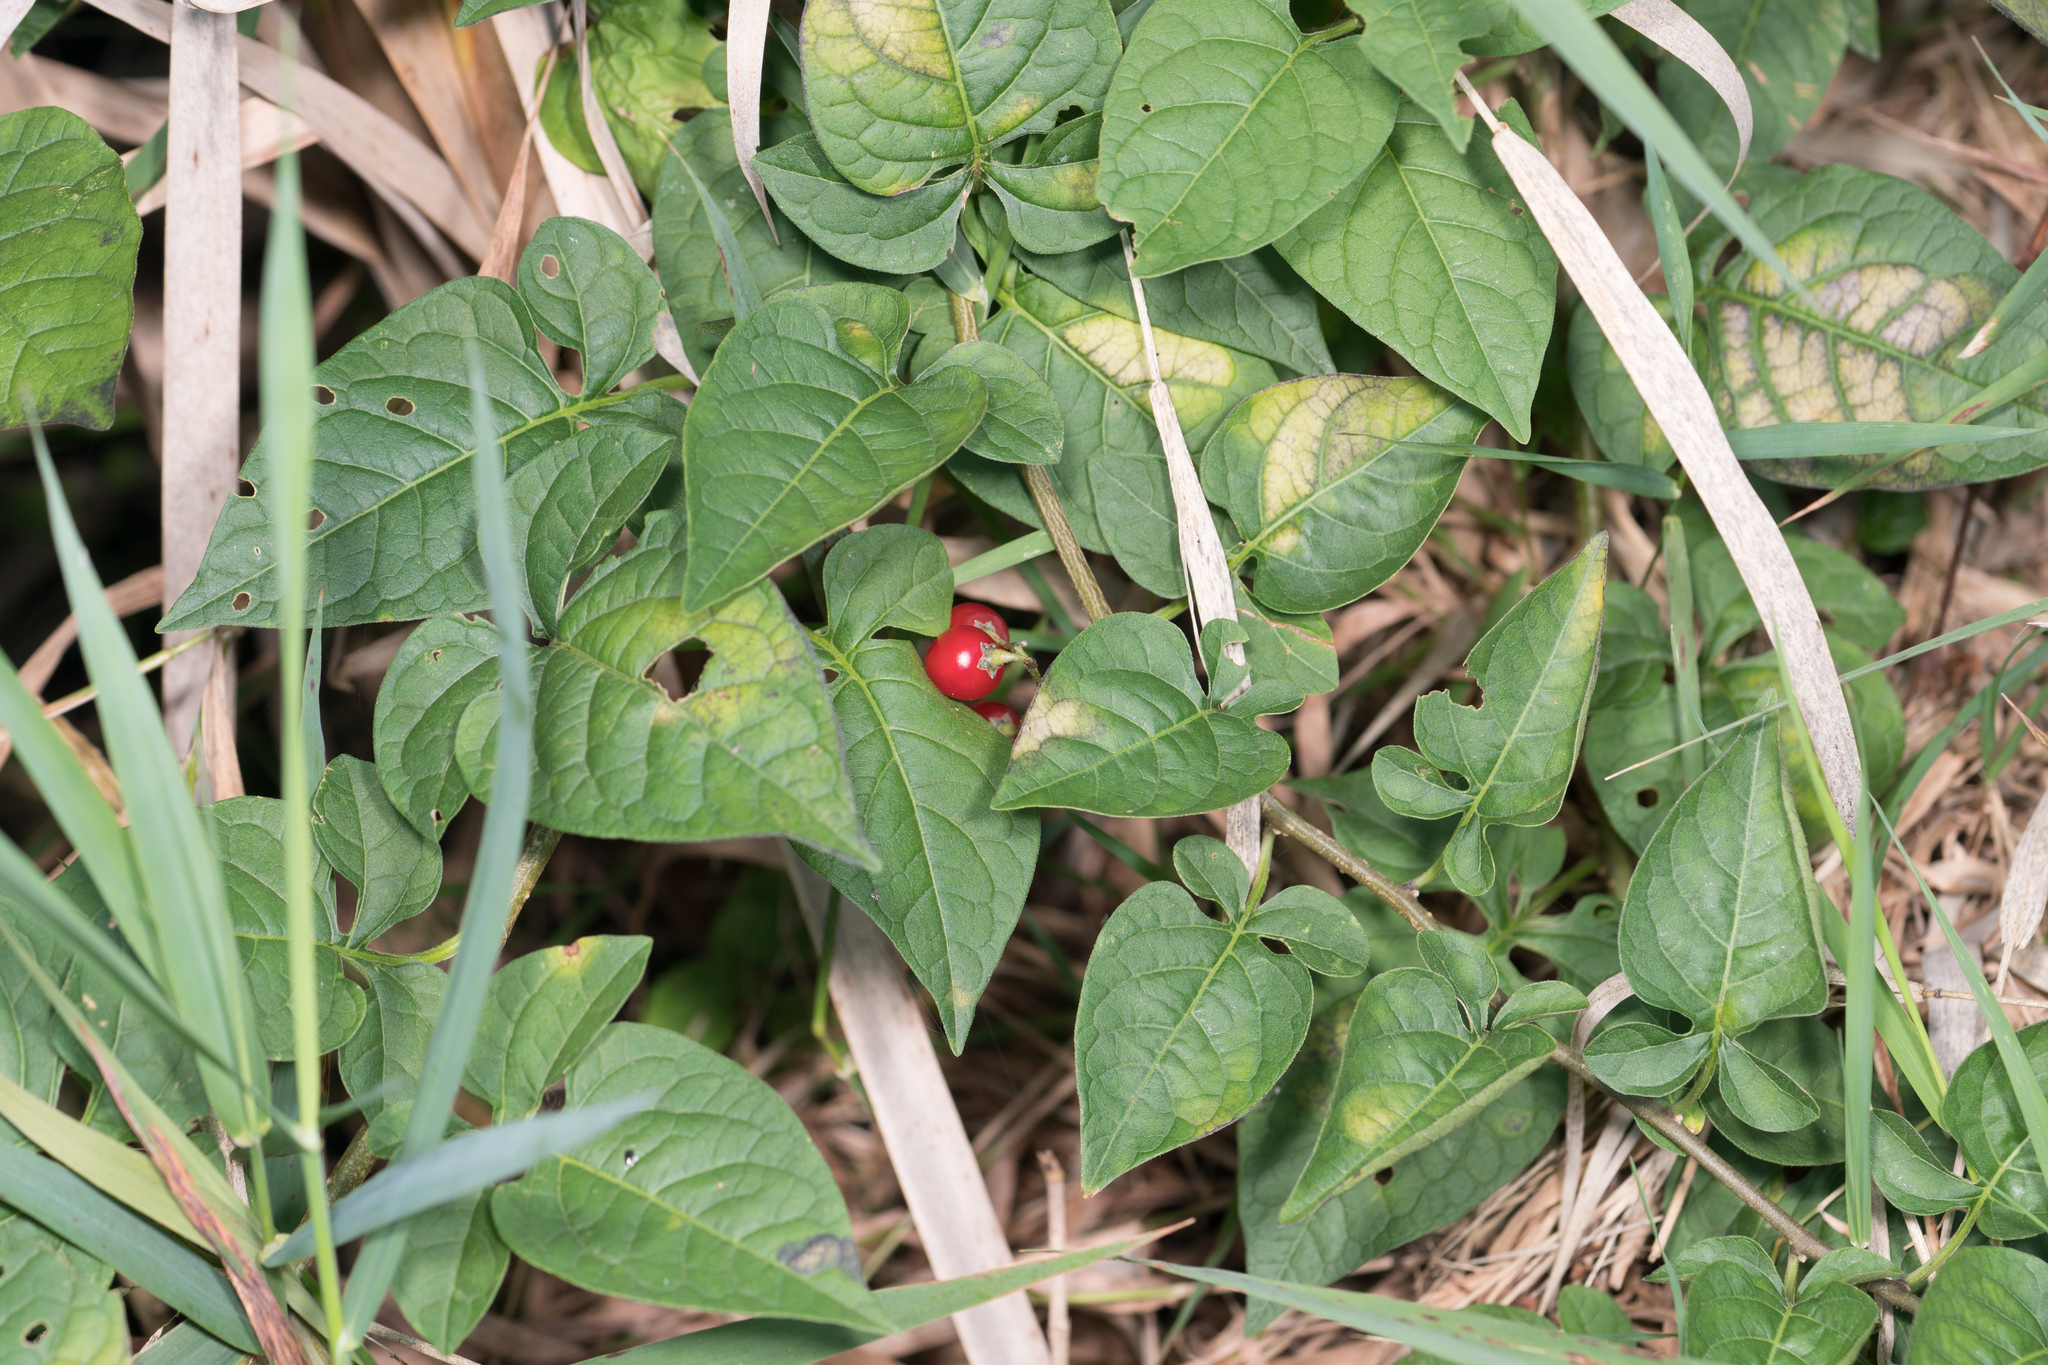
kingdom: Plantae
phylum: Tracheophyta
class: Magnoliopsida
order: Solanales
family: Solanaceae
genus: Solanum
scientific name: Solanum dulcamara
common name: Climbing nightshade
